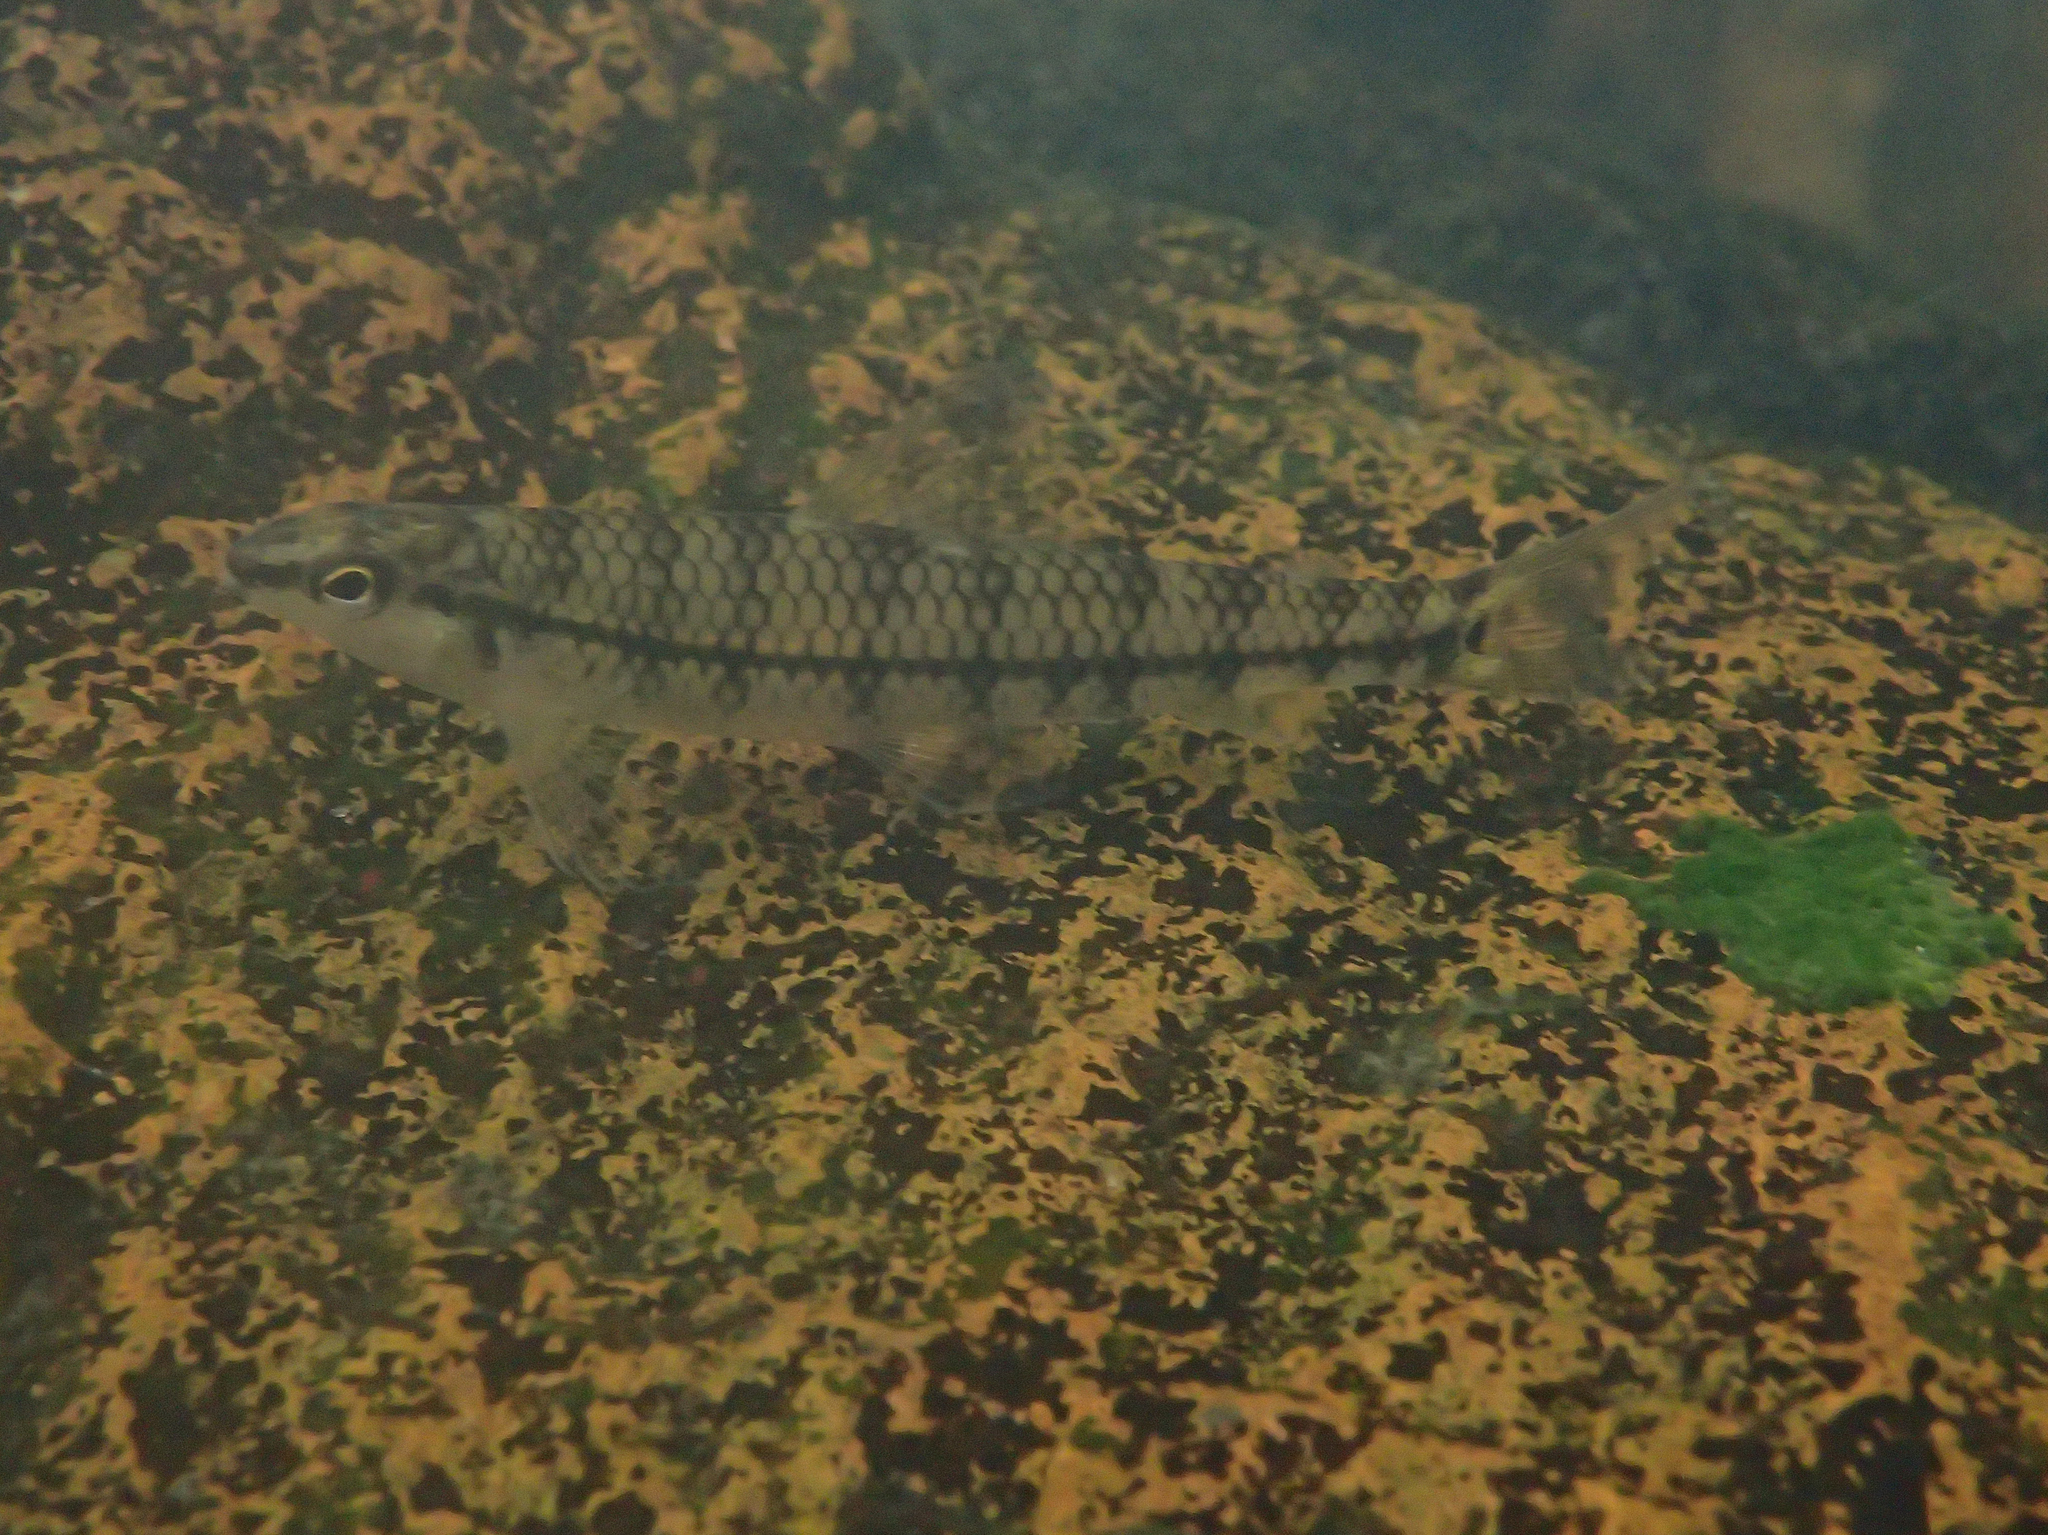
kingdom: Animalia
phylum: Chordata
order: Characiformes
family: Crenuchidae
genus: Characidium
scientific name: Characidium zebra
